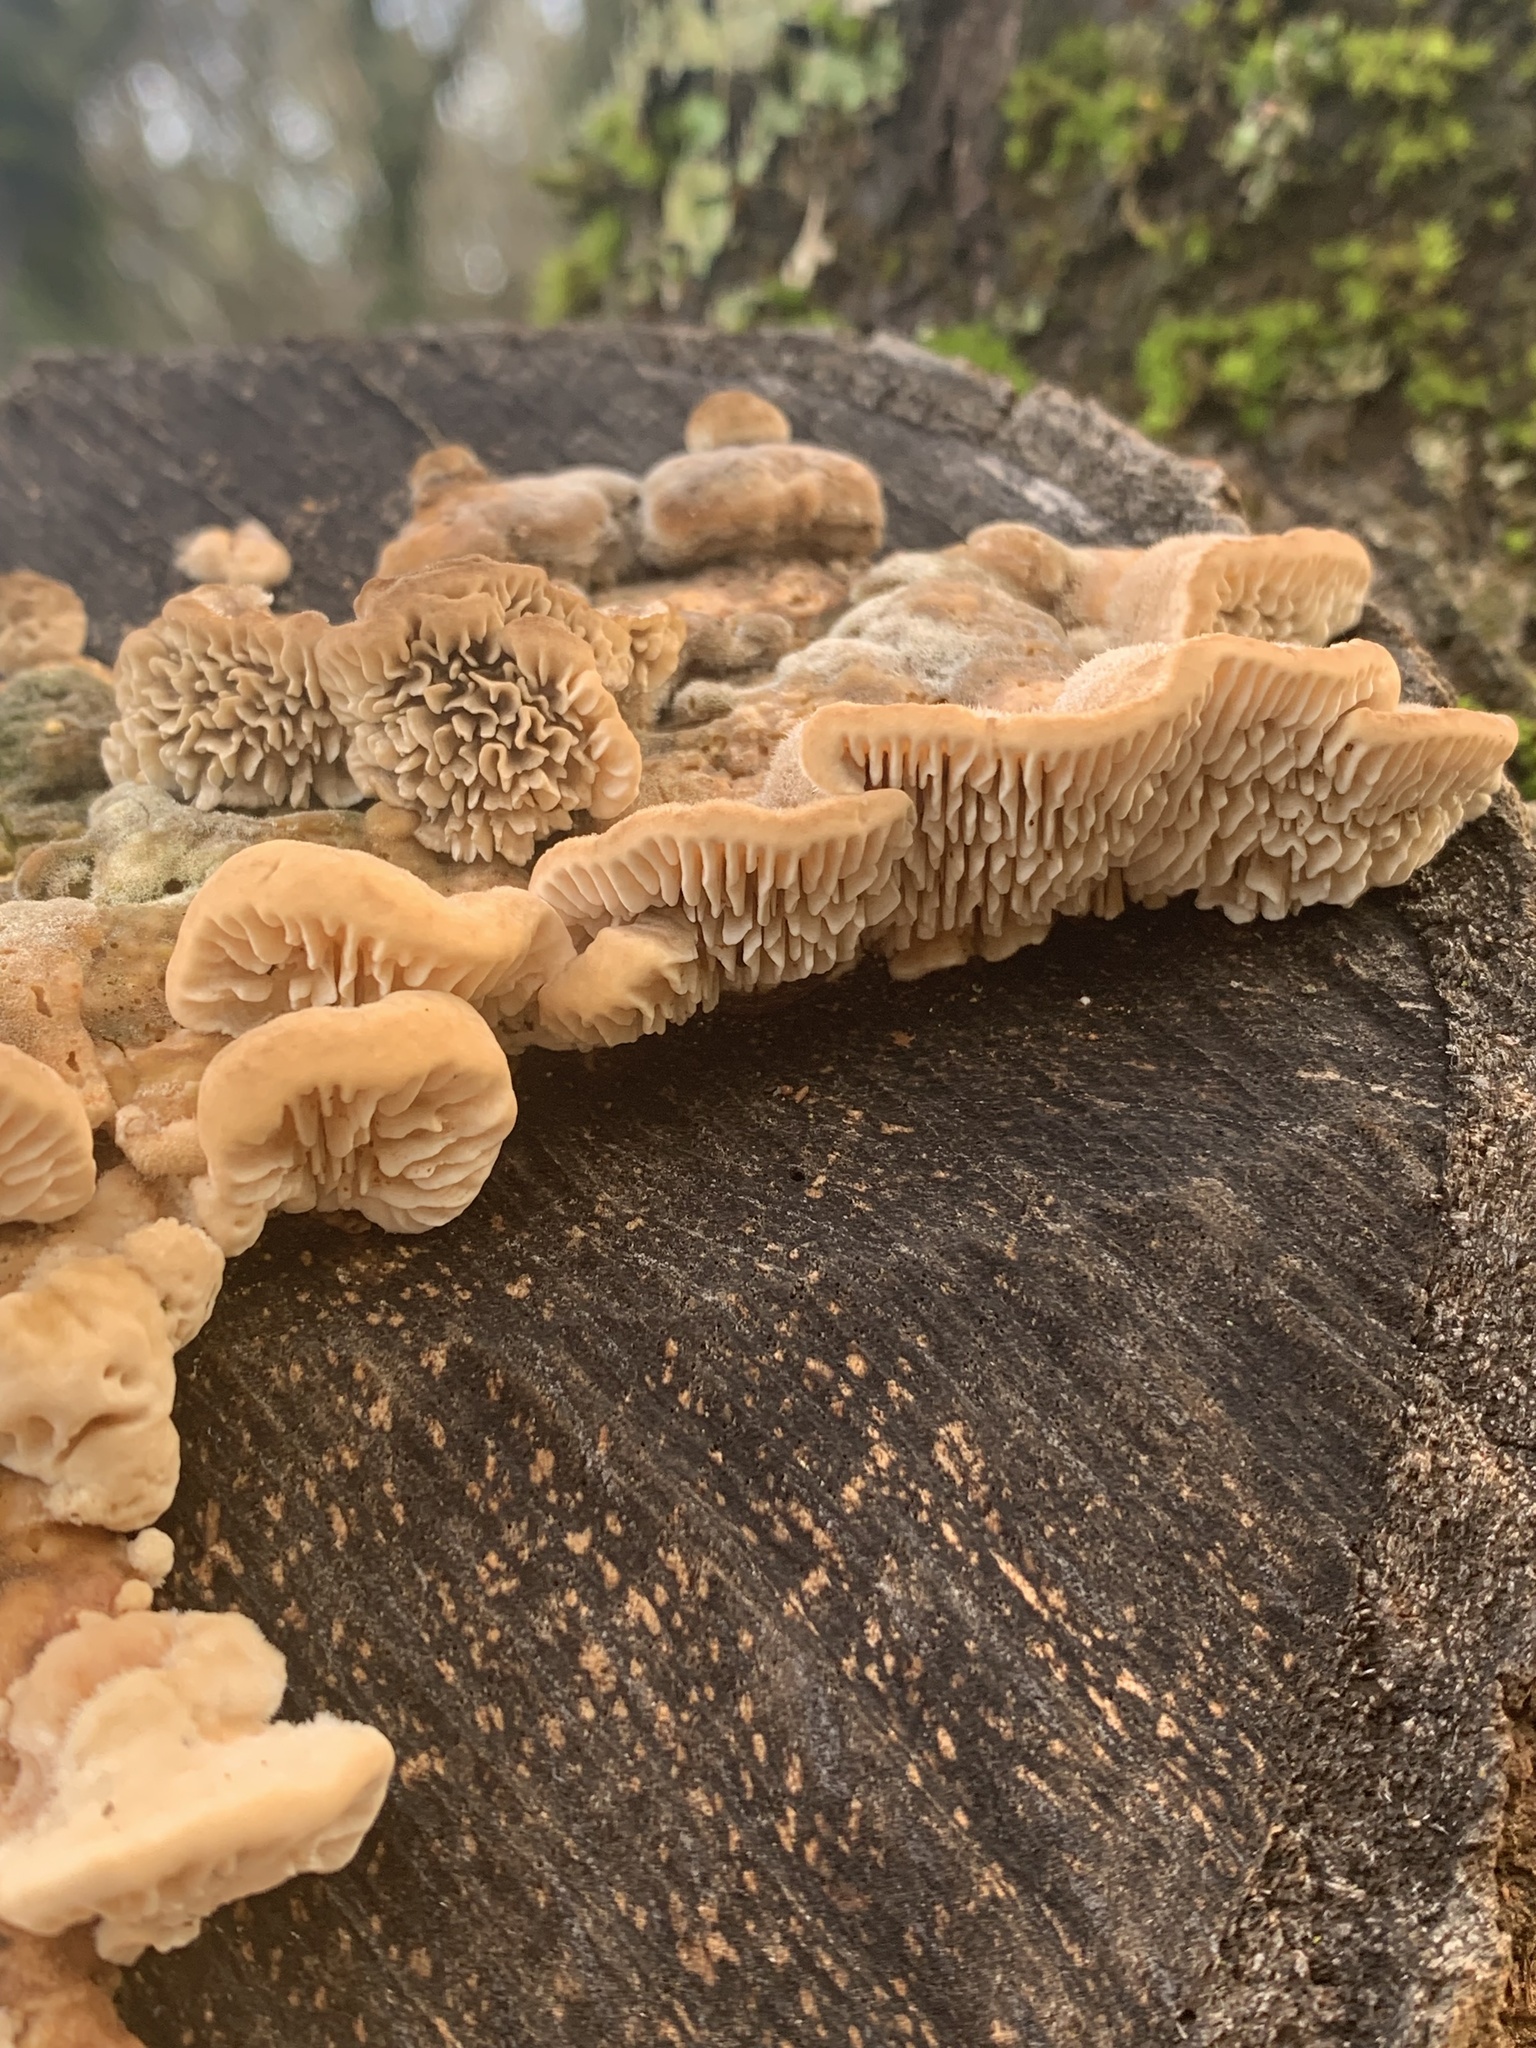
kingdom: Fungi
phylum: Basidiomycota
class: Agaricomycetes
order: Polyporales
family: Polyporaceae
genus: Lenzites
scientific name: Lenzites betulinus
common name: Birch mazegill
